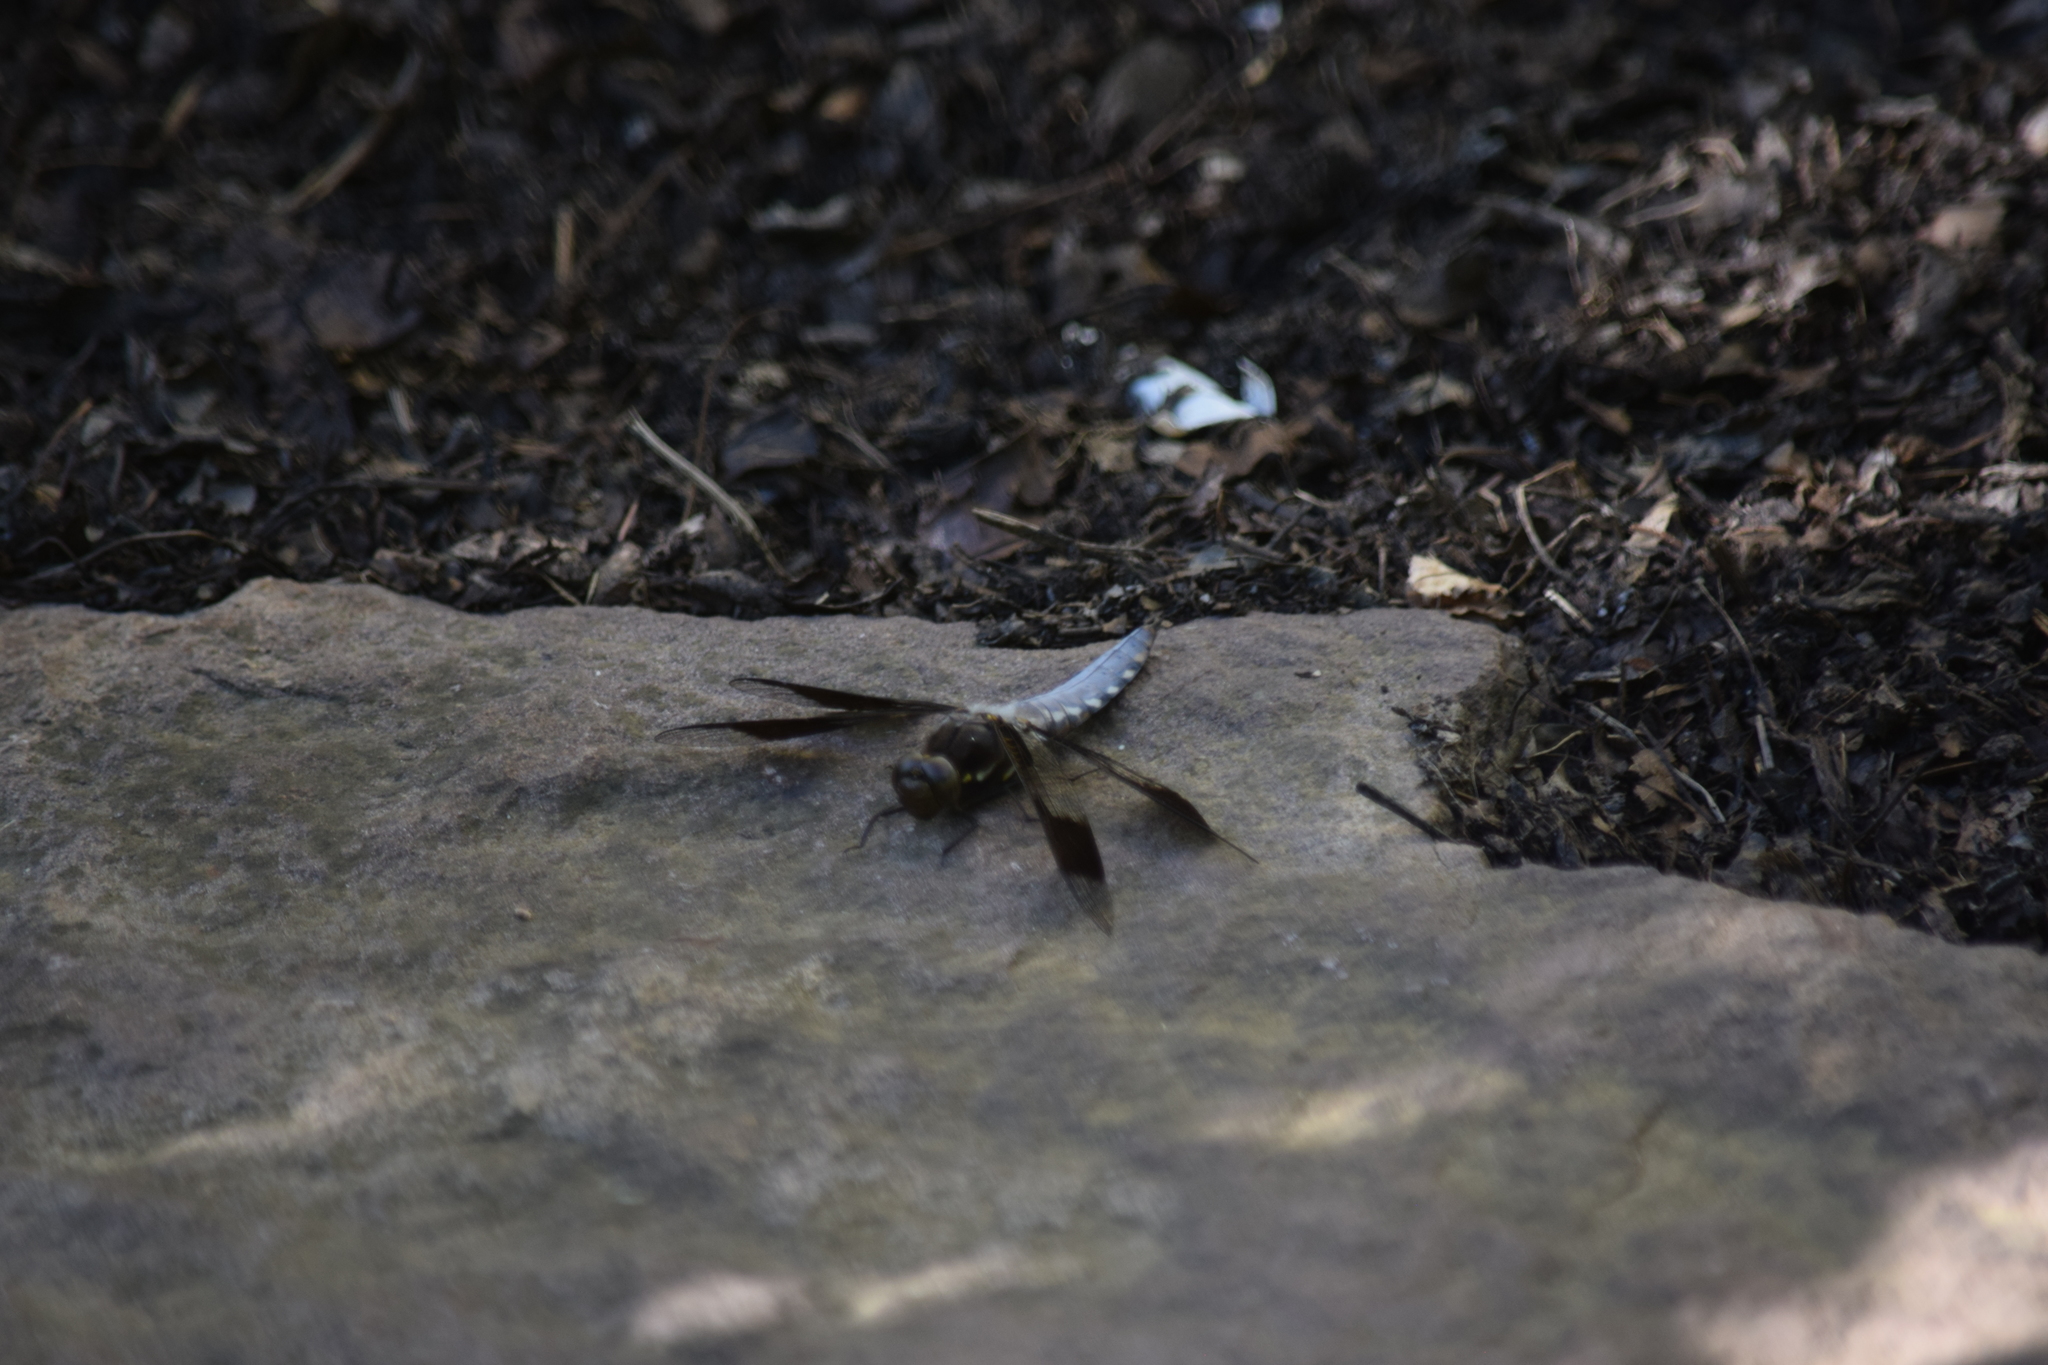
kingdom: Animalia
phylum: Arthropoda
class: Insecta
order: Odonata
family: Libellulidae
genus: Plathemis
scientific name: Plathemis lydia
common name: Common whitetail
